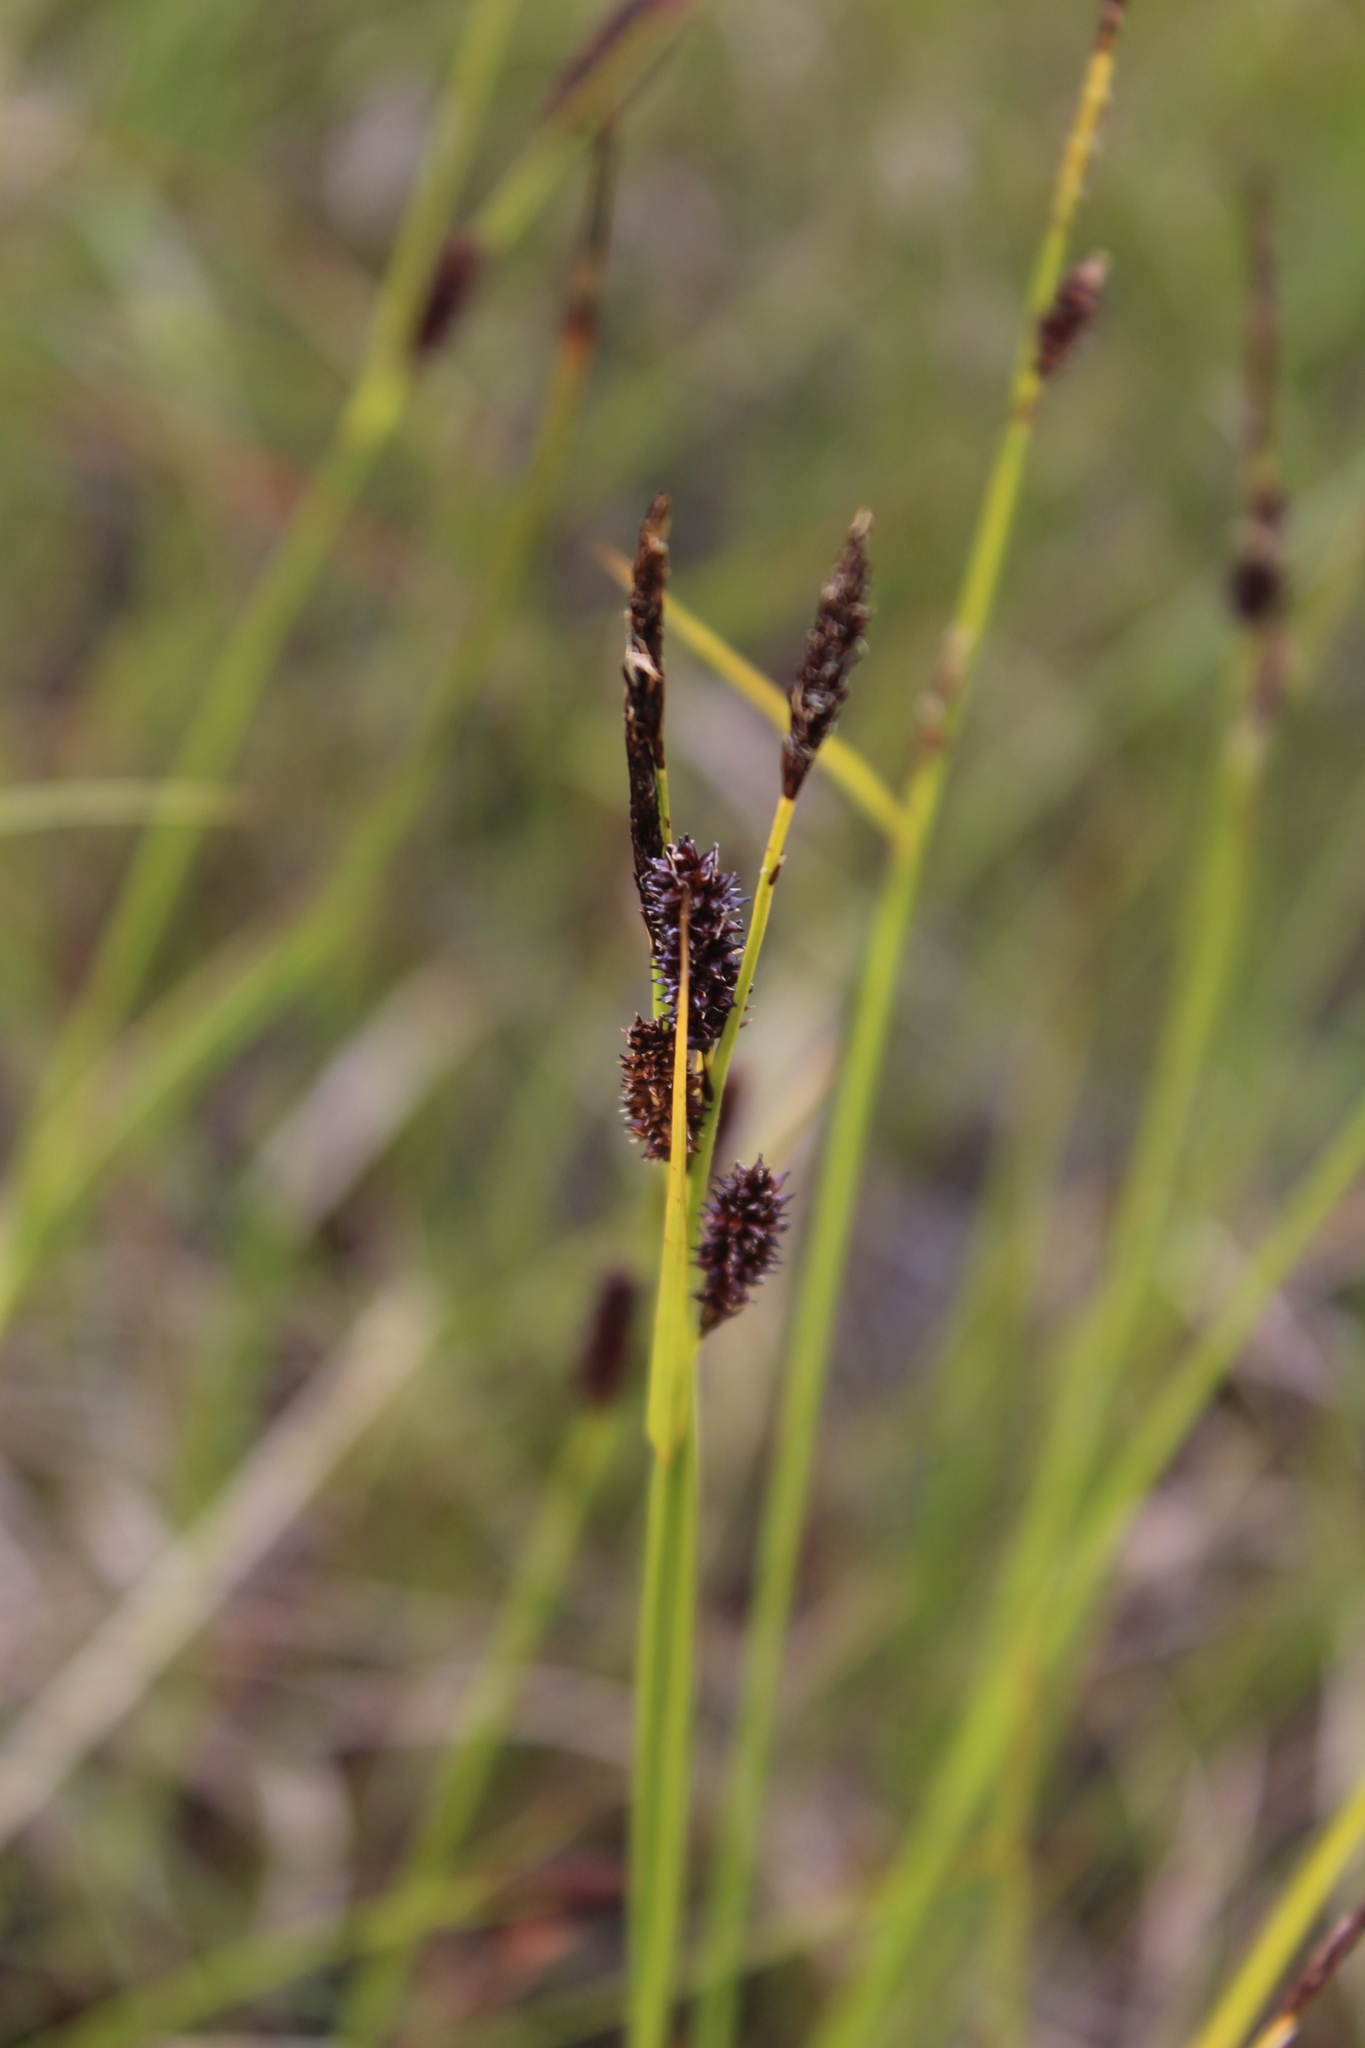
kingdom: Plantae
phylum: Tracheophyta
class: Liliopsida
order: Poales
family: Cyperaceae
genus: Carex
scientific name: Carex saxatilis
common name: Russet sedge
